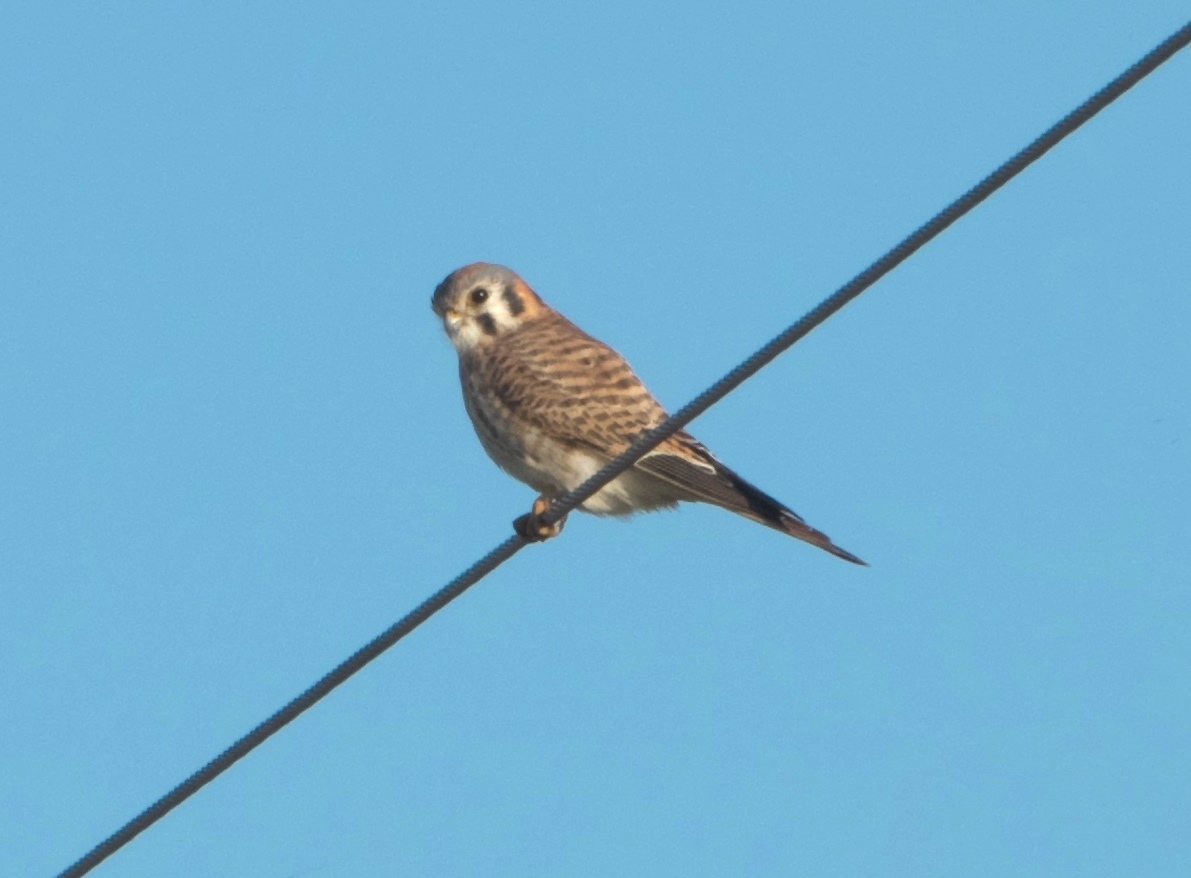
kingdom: Animalia
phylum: Chordata
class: Aves
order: Falconiformes
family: Falconidae
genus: Falco
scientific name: Falco sparverius
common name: American kestrel
